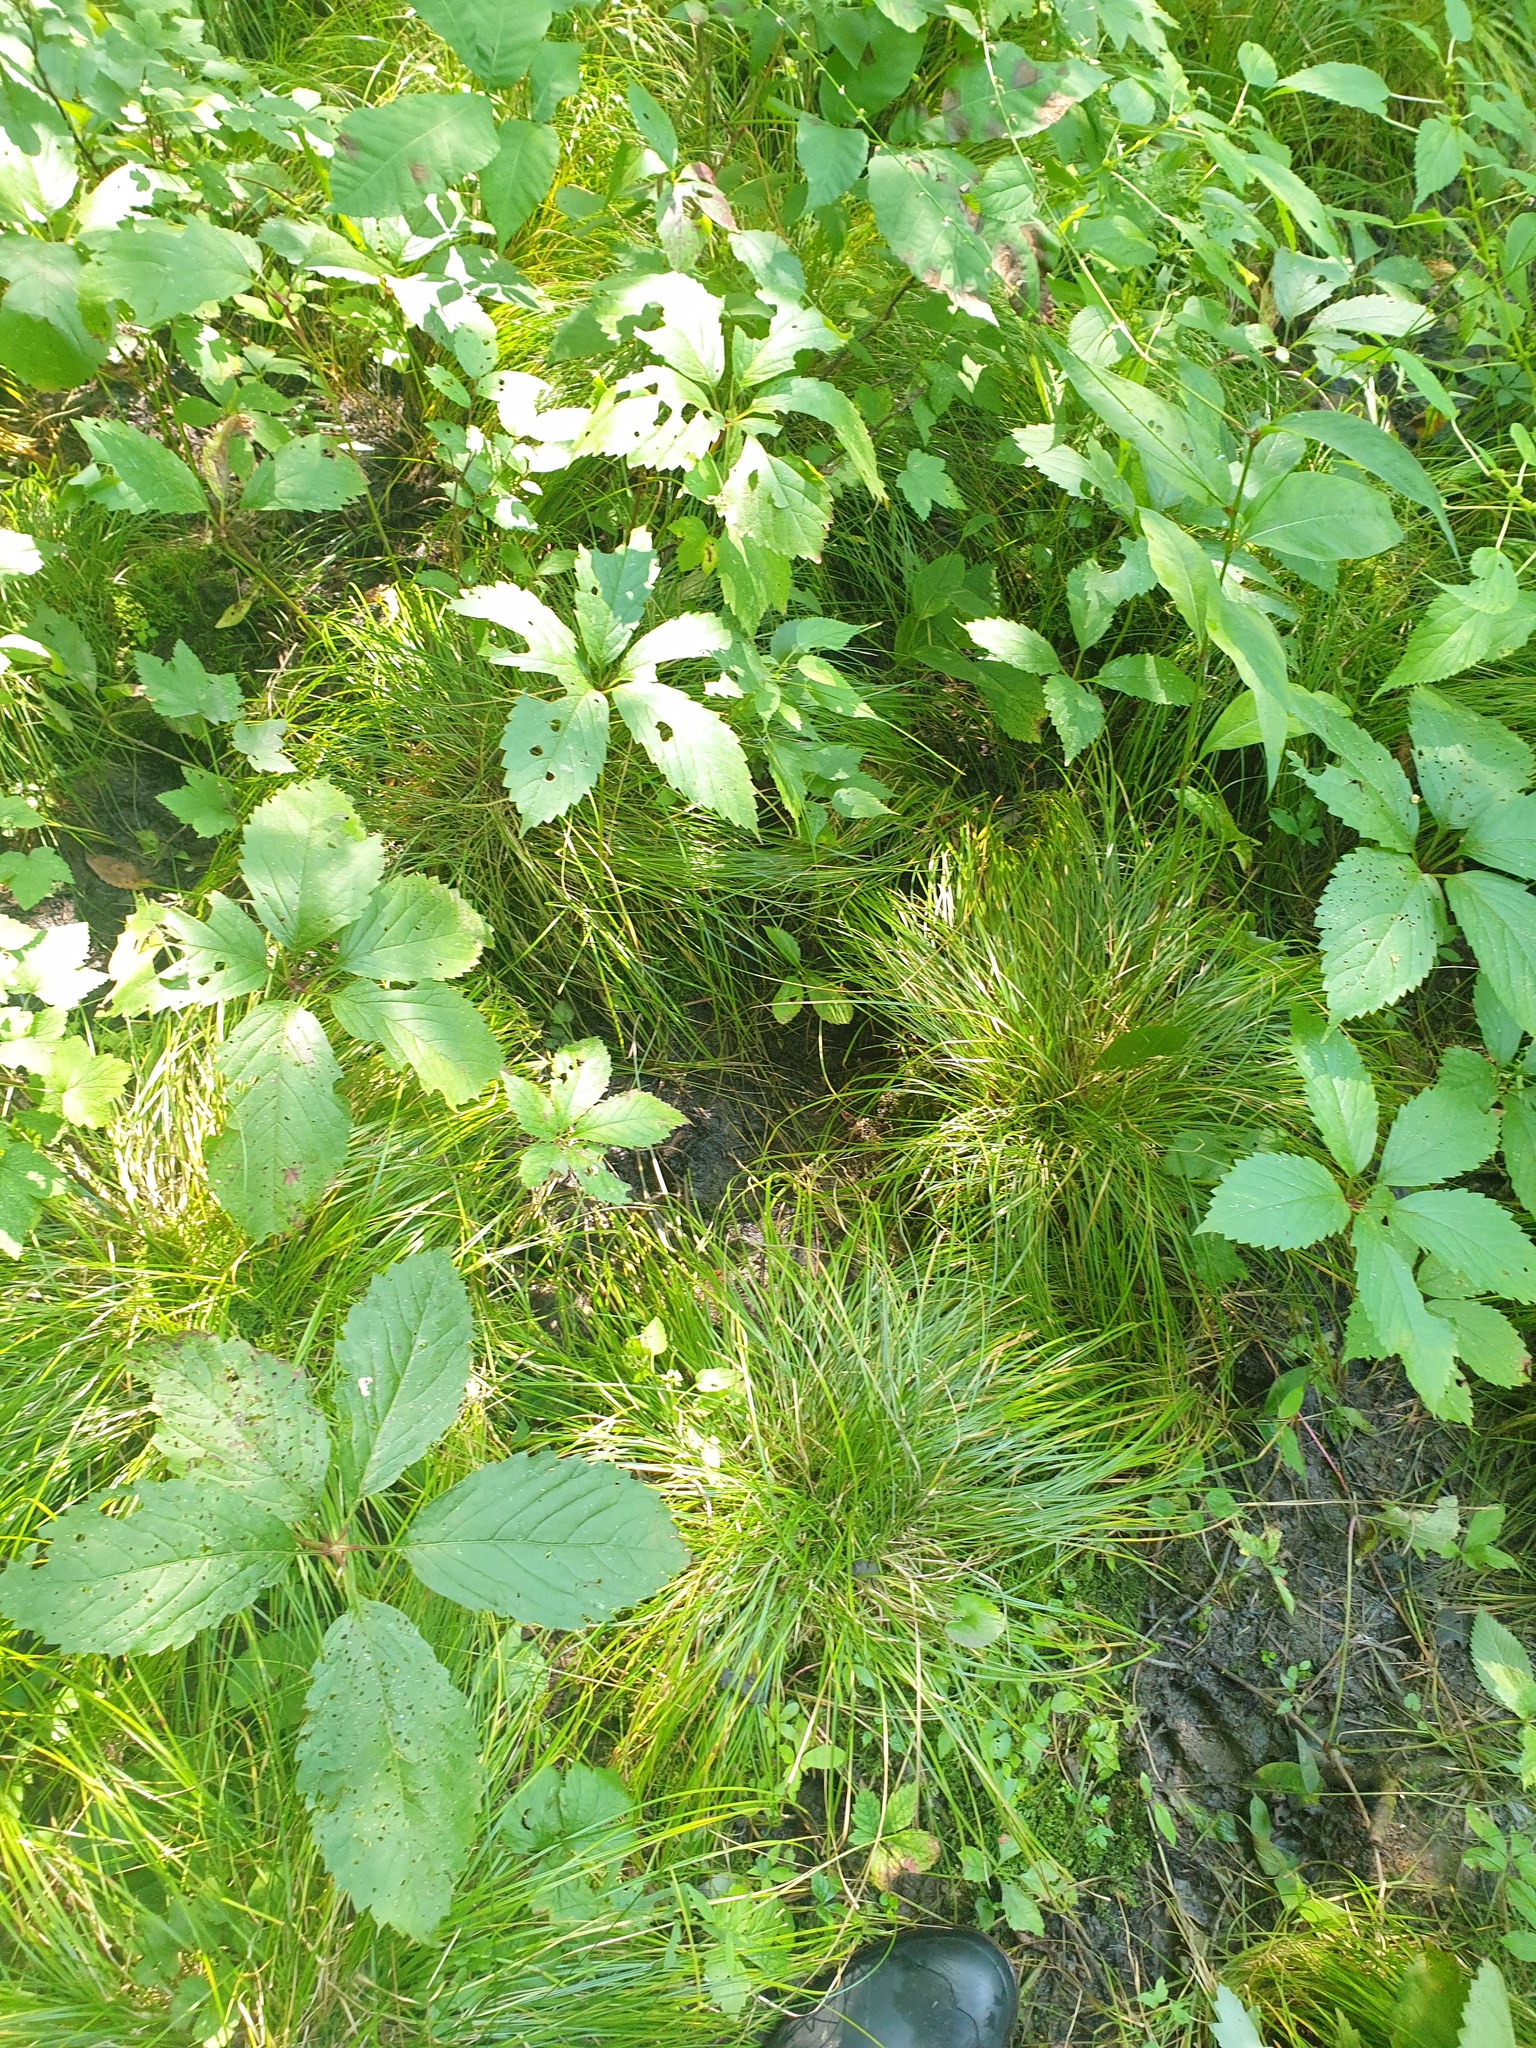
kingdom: Plantae
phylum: Tracheophyta
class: Liliopsida
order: Poales
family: Cyperaceae
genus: Carex
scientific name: Carex bromoides
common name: Brome hummock sedge
